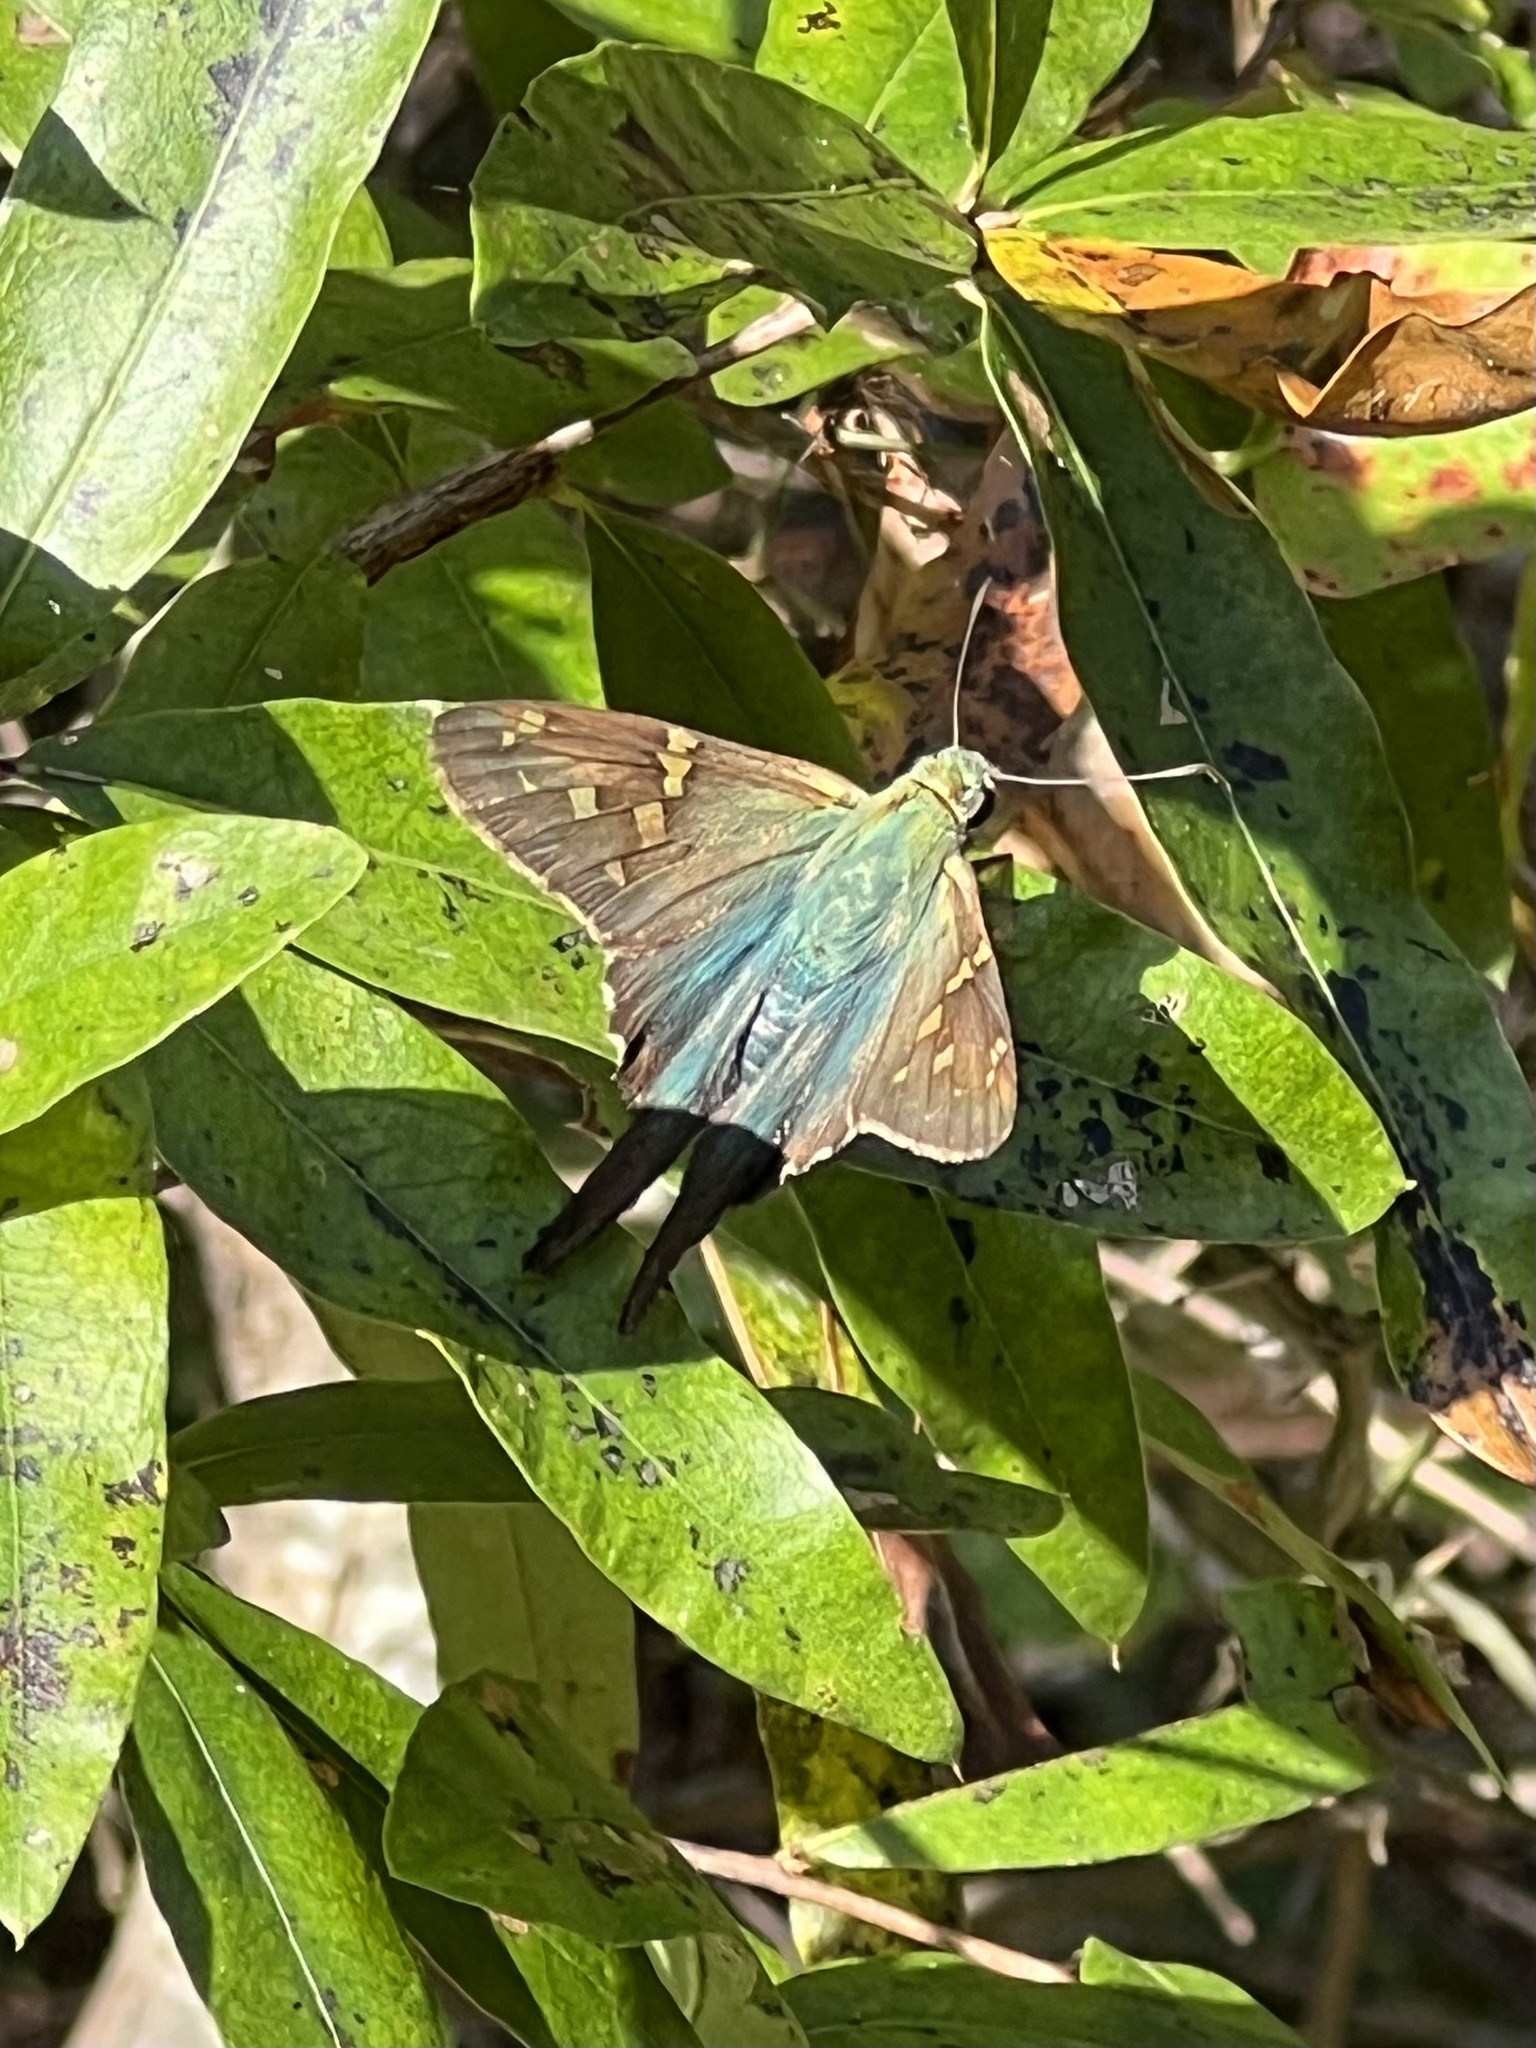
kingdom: Animalia
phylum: Arthropoda
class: Insecta
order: Lepidoptera
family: Hesperiidae
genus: Urbanus
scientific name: Urbanus proteus
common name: Long-tailed skipper
